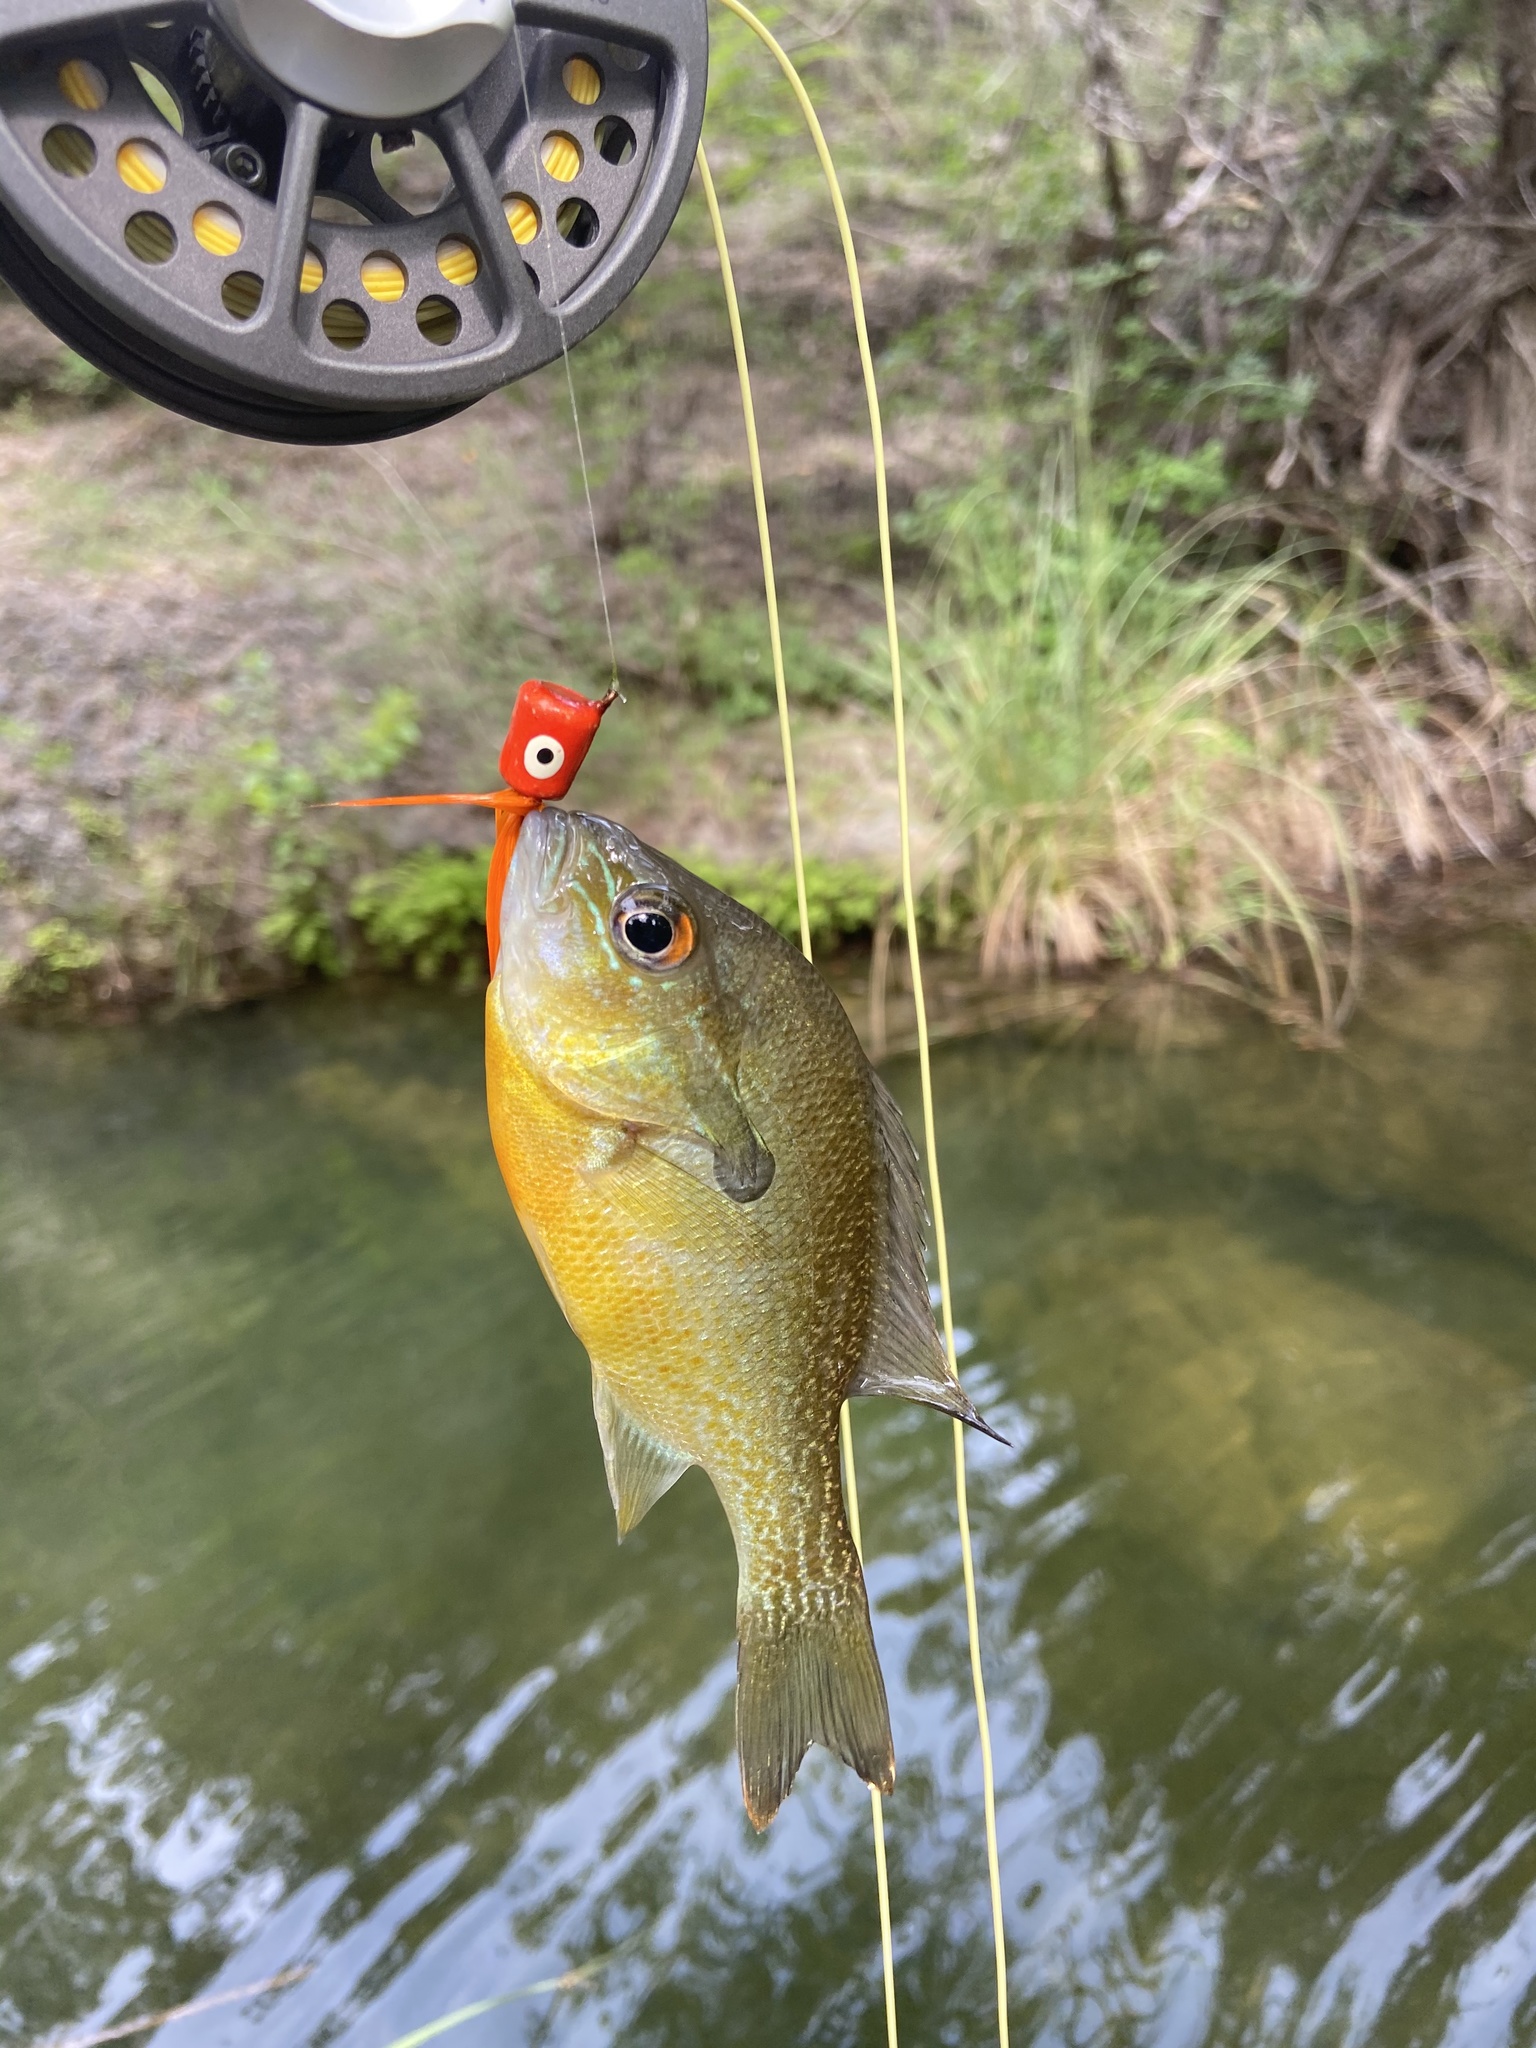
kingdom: Animalia
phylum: Chordata
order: Perciformes
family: Centrarchidae
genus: Lepomis
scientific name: Lepomis auritus
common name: Redbreast sunfish
